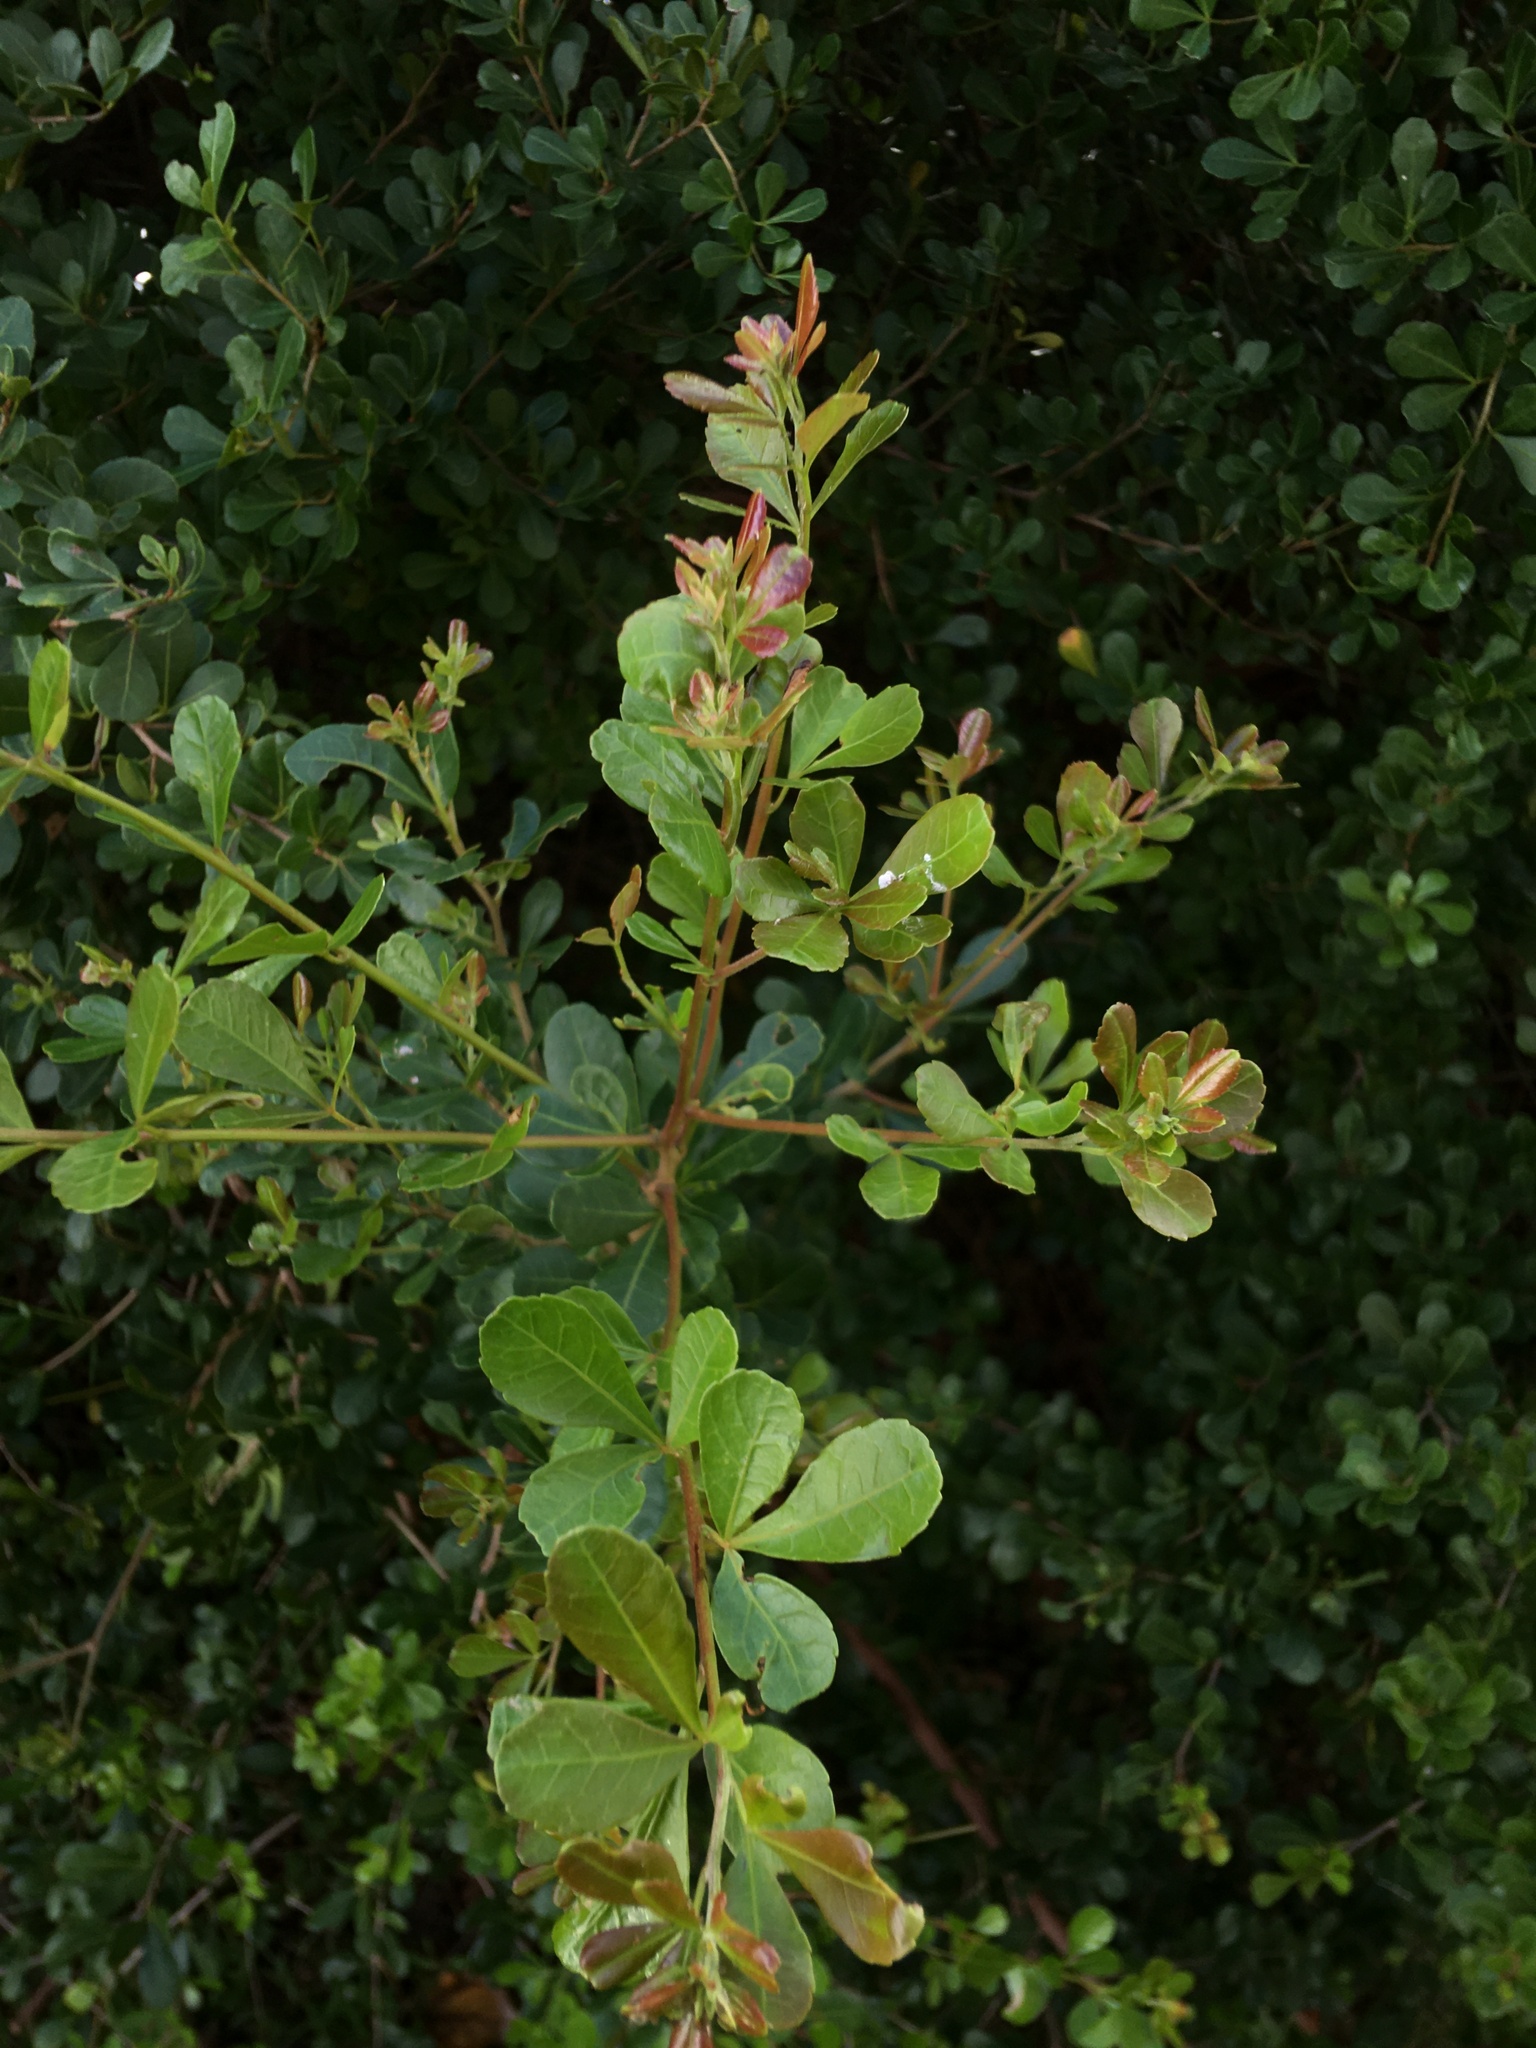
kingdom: Plantae
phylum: Tracheophyta
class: Magnoliopsida
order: Sapindales
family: Anacardiaceae
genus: Searsia
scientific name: Searsia crenata
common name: Crowberry
